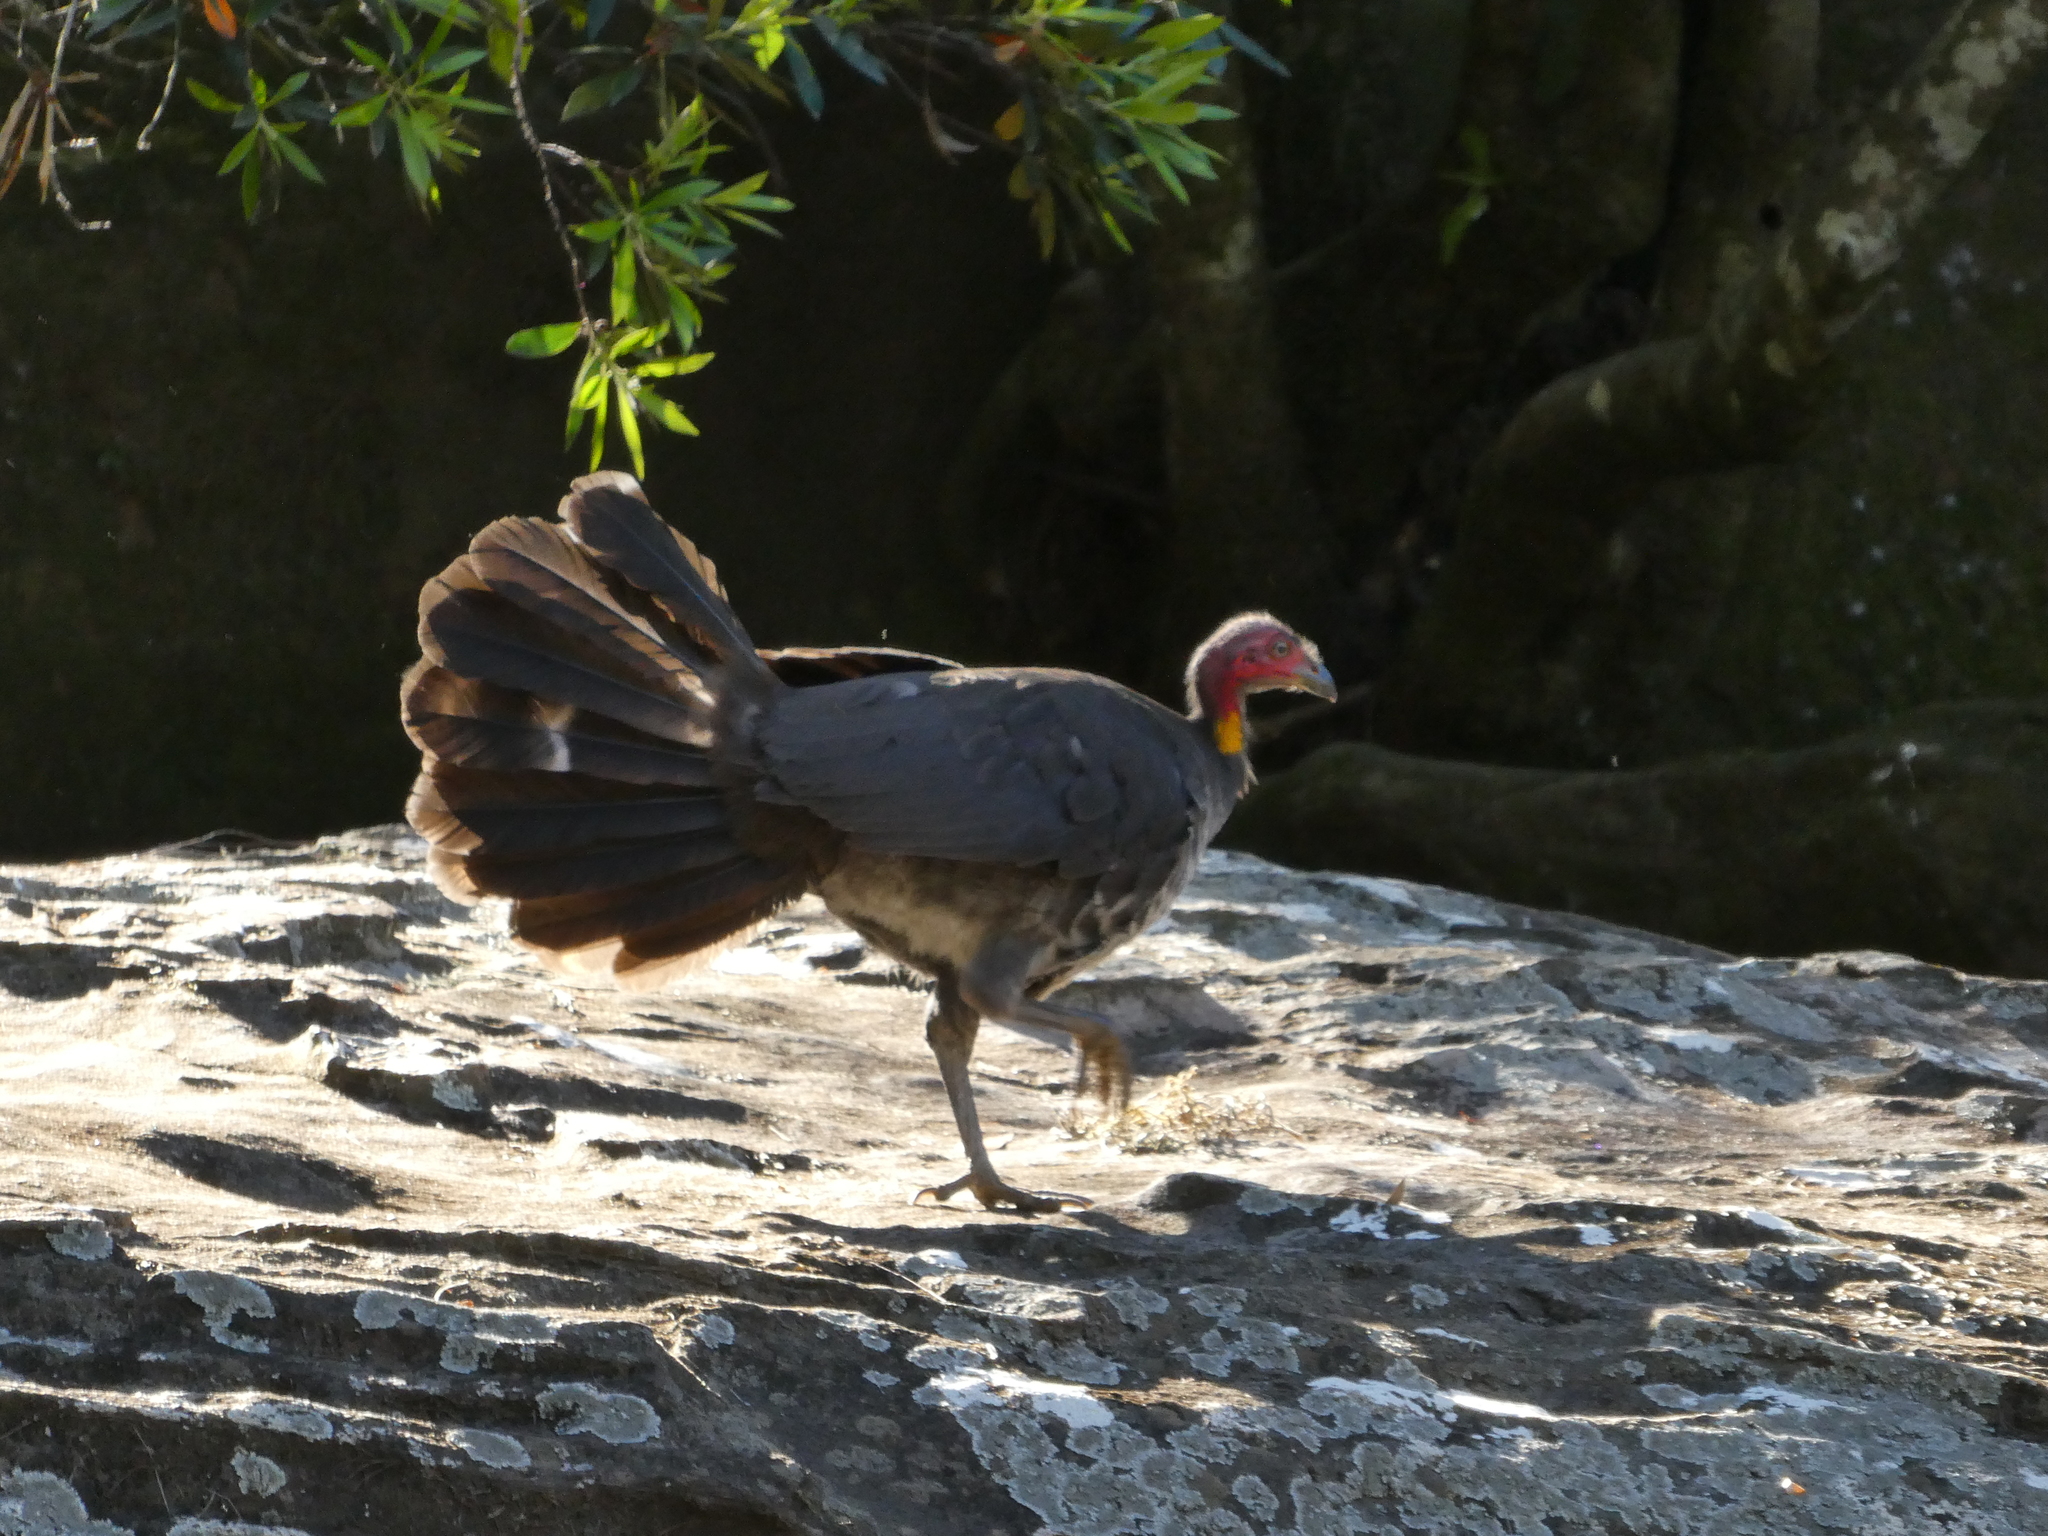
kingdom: Animalia
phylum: Chordata
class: Aves
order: Galliformes
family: Megapodiidae
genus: Alectura
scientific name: Alectura lathami
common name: Australian brushturkey
